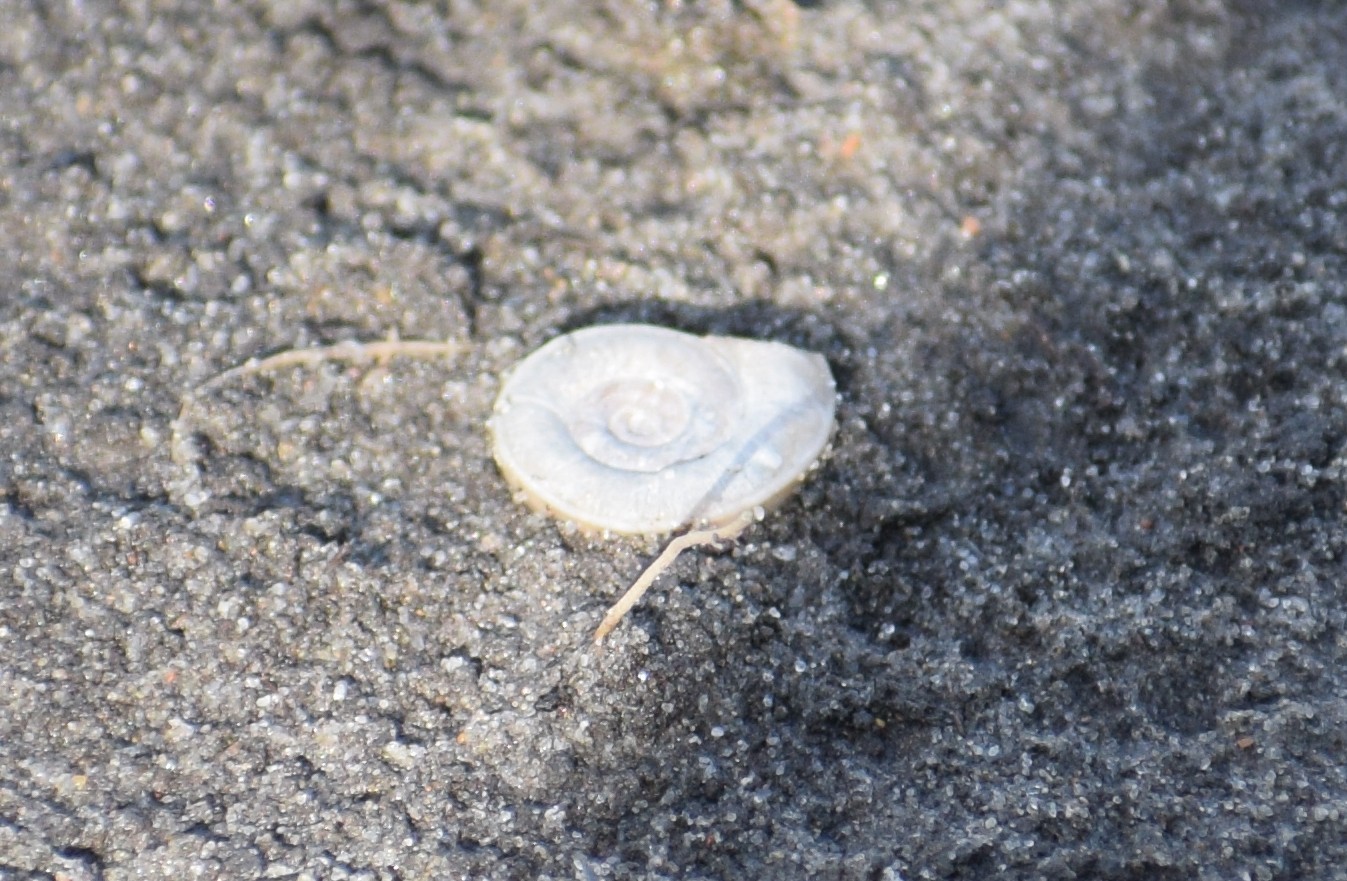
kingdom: Animalia
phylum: Mollusca
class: Gastropoda
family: Planorbidae
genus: Planorbis
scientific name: Planorbis carinatus
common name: Keeled ramshorn
